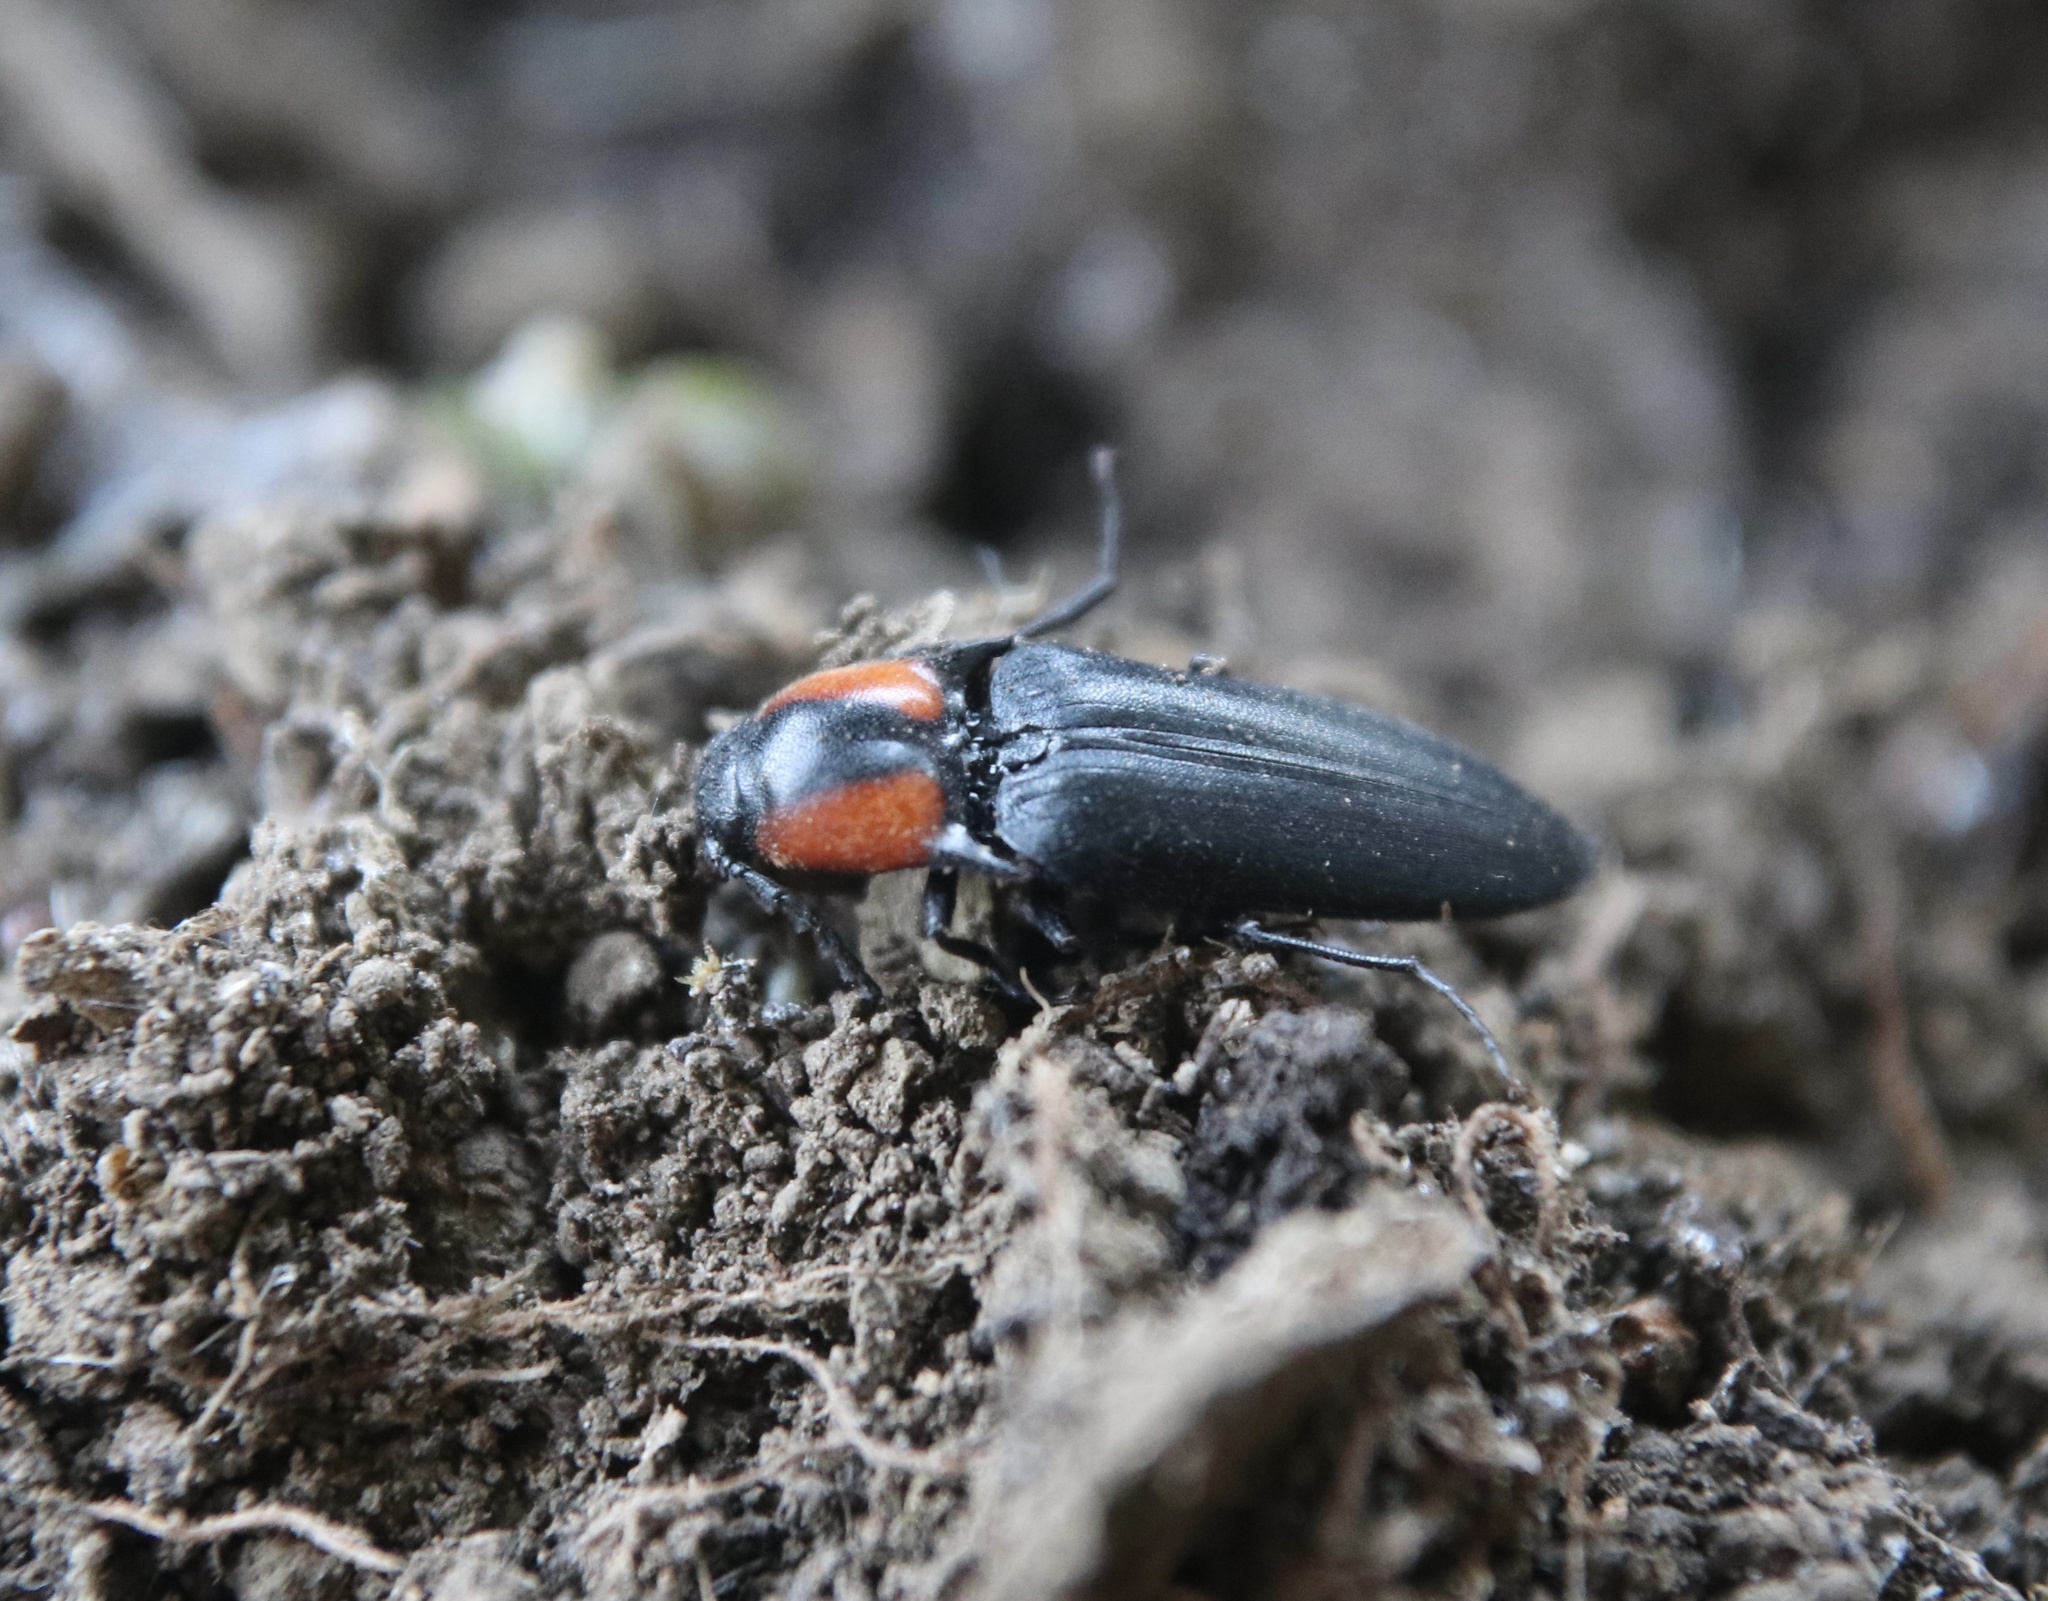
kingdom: Animalia
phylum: Arthropoda
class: Insecta
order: Coleoptera
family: Elateridae
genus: Elater
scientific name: Elater
